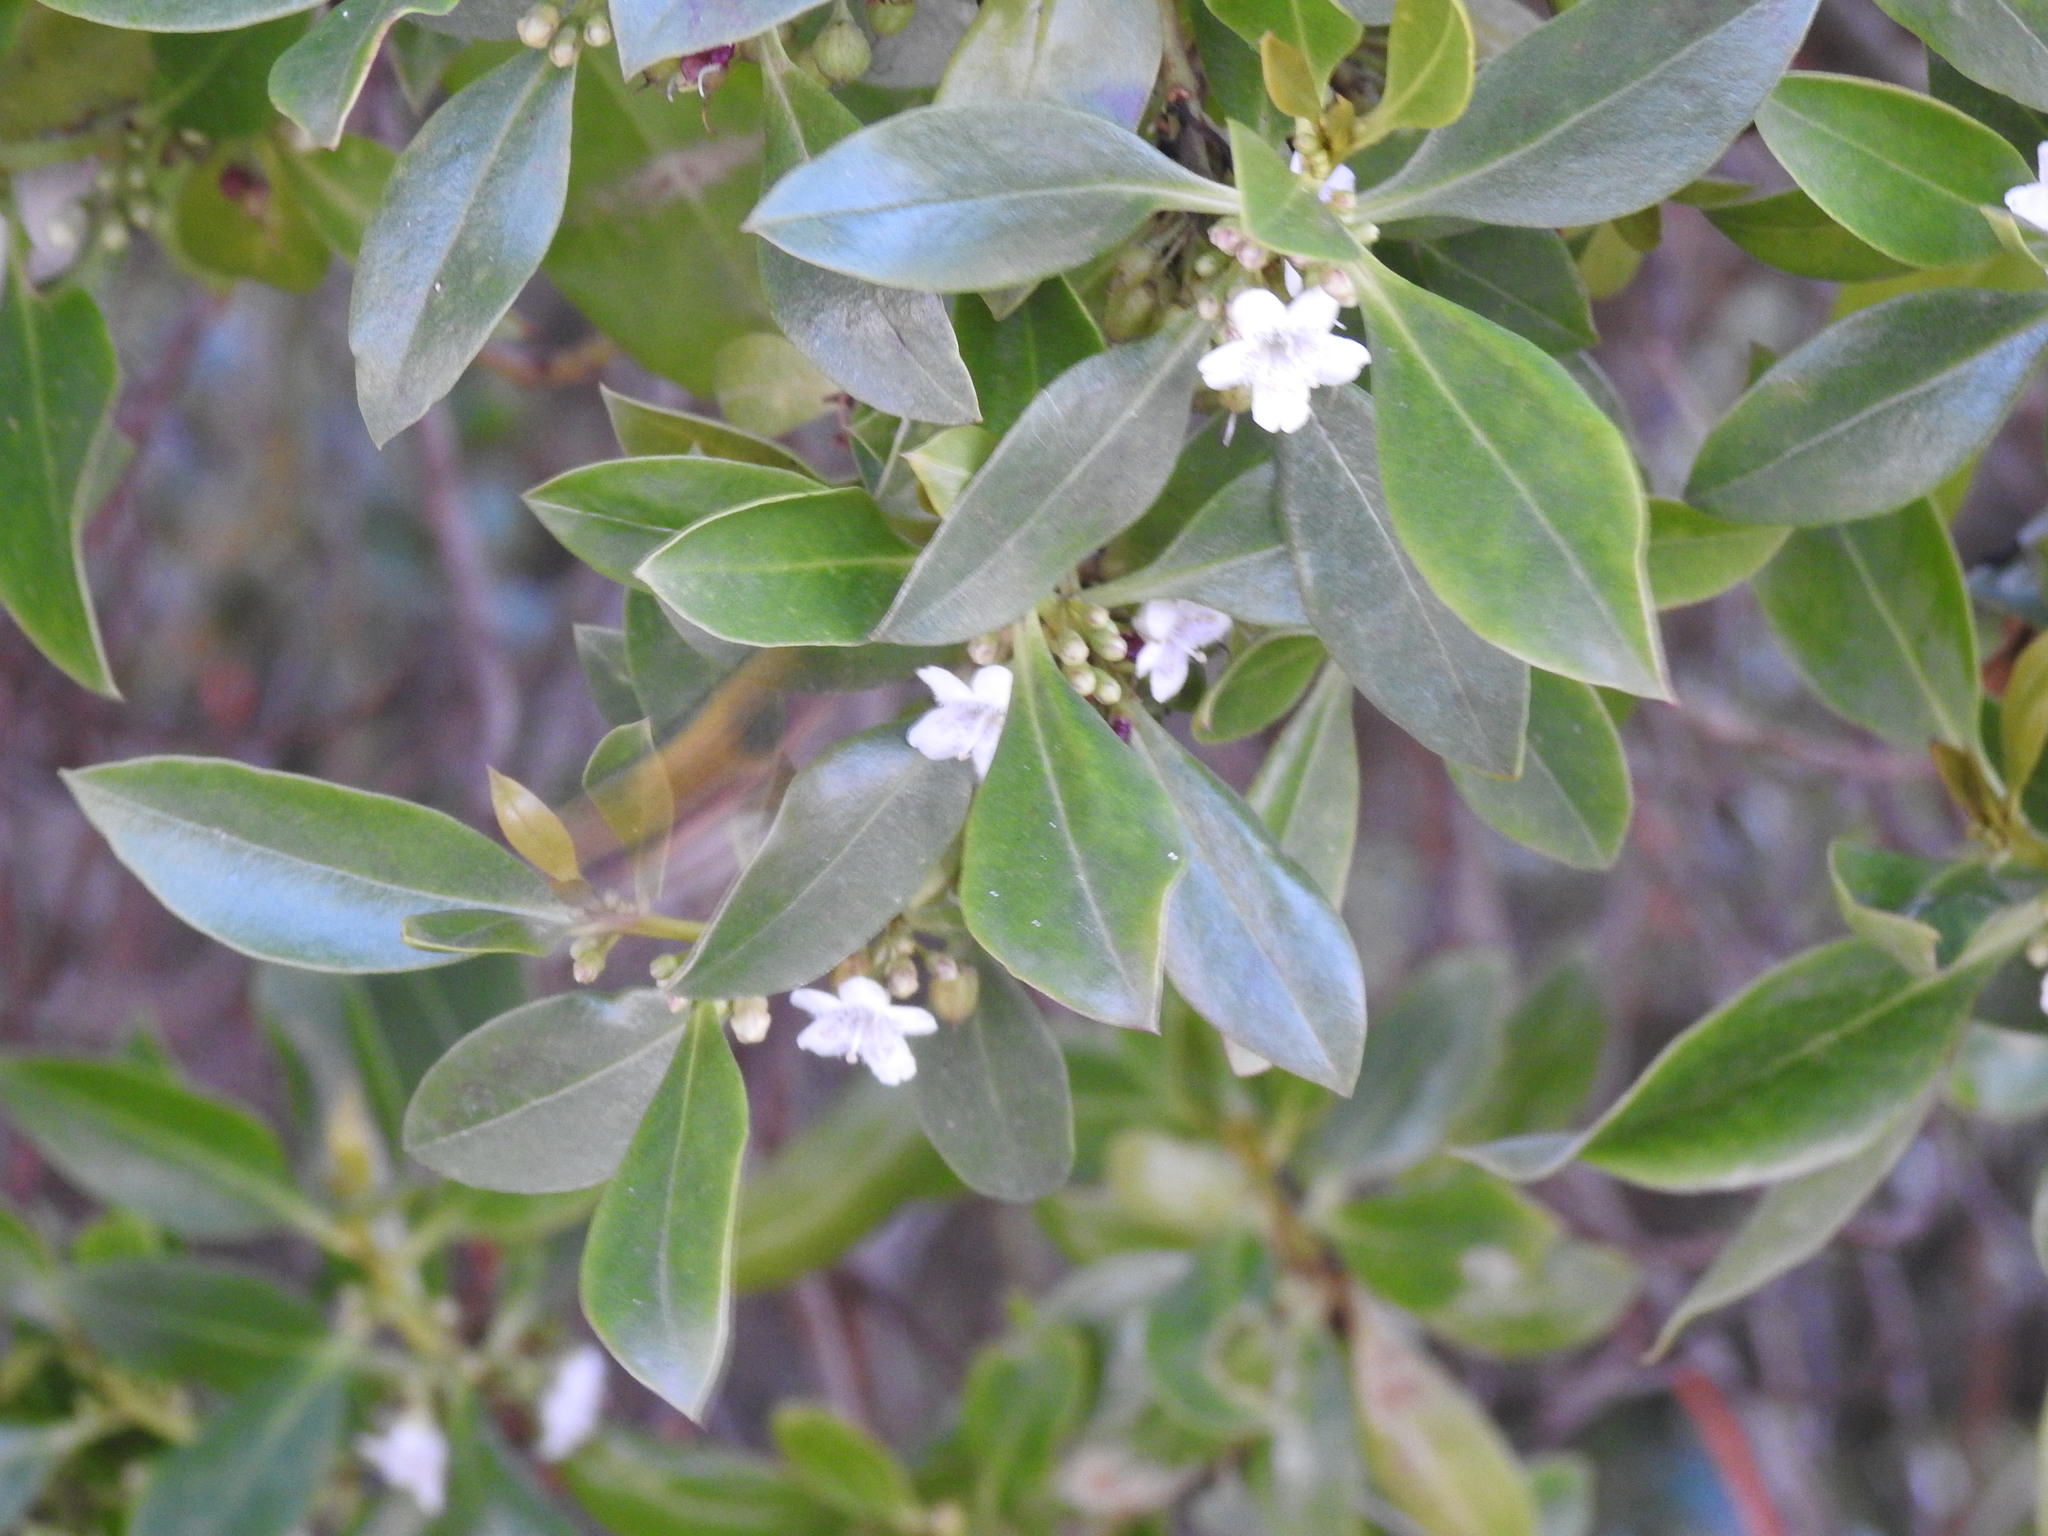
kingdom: Plantae
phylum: Tracheophyta
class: Magnoliopsida
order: Lamiales
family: Scrophulariaceae
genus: Myoporum
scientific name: Myoporum laetum
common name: Ngaio tree
